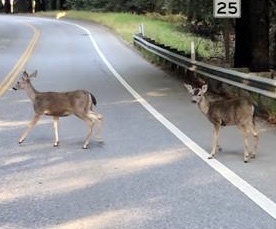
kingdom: Animalia
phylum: Chordata
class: Mammalia
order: Artiodactyla
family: Cervidae
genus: Odocoileus
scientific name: Odocoileus hemionus
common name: Mule deer
